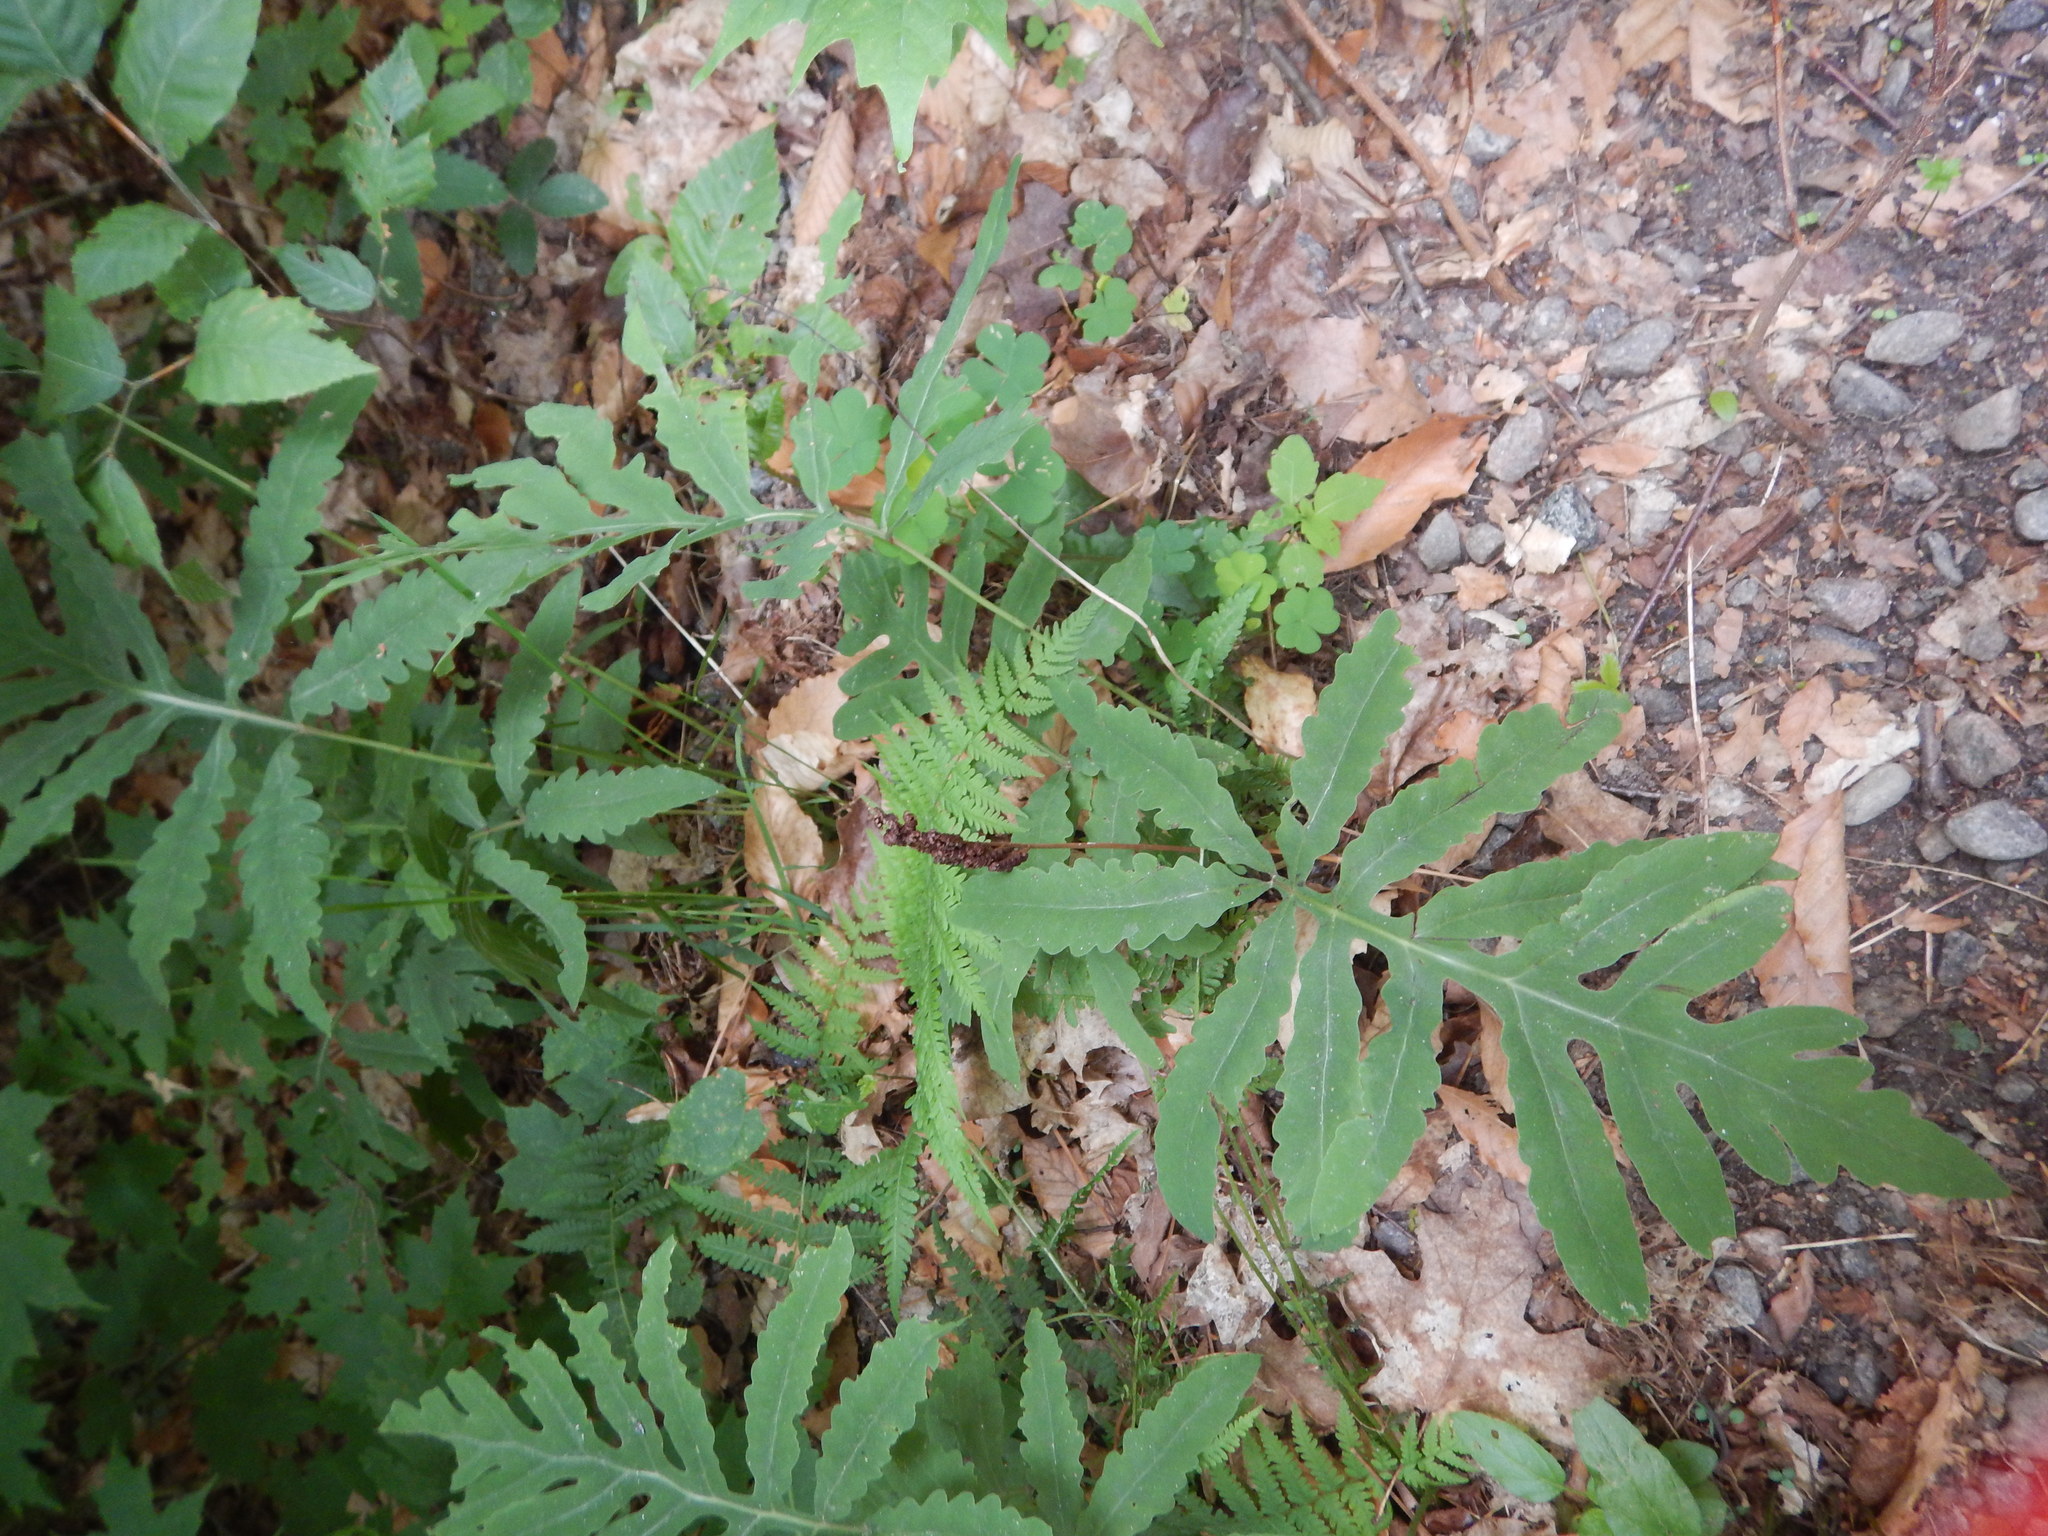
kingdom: Plantae
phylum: Tracheophyta
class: Polypodiopsida
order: Polypodiales
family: Onocleaceae
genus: Onoclea
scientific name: Onoclea sensibilis
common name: Sensitive fern
